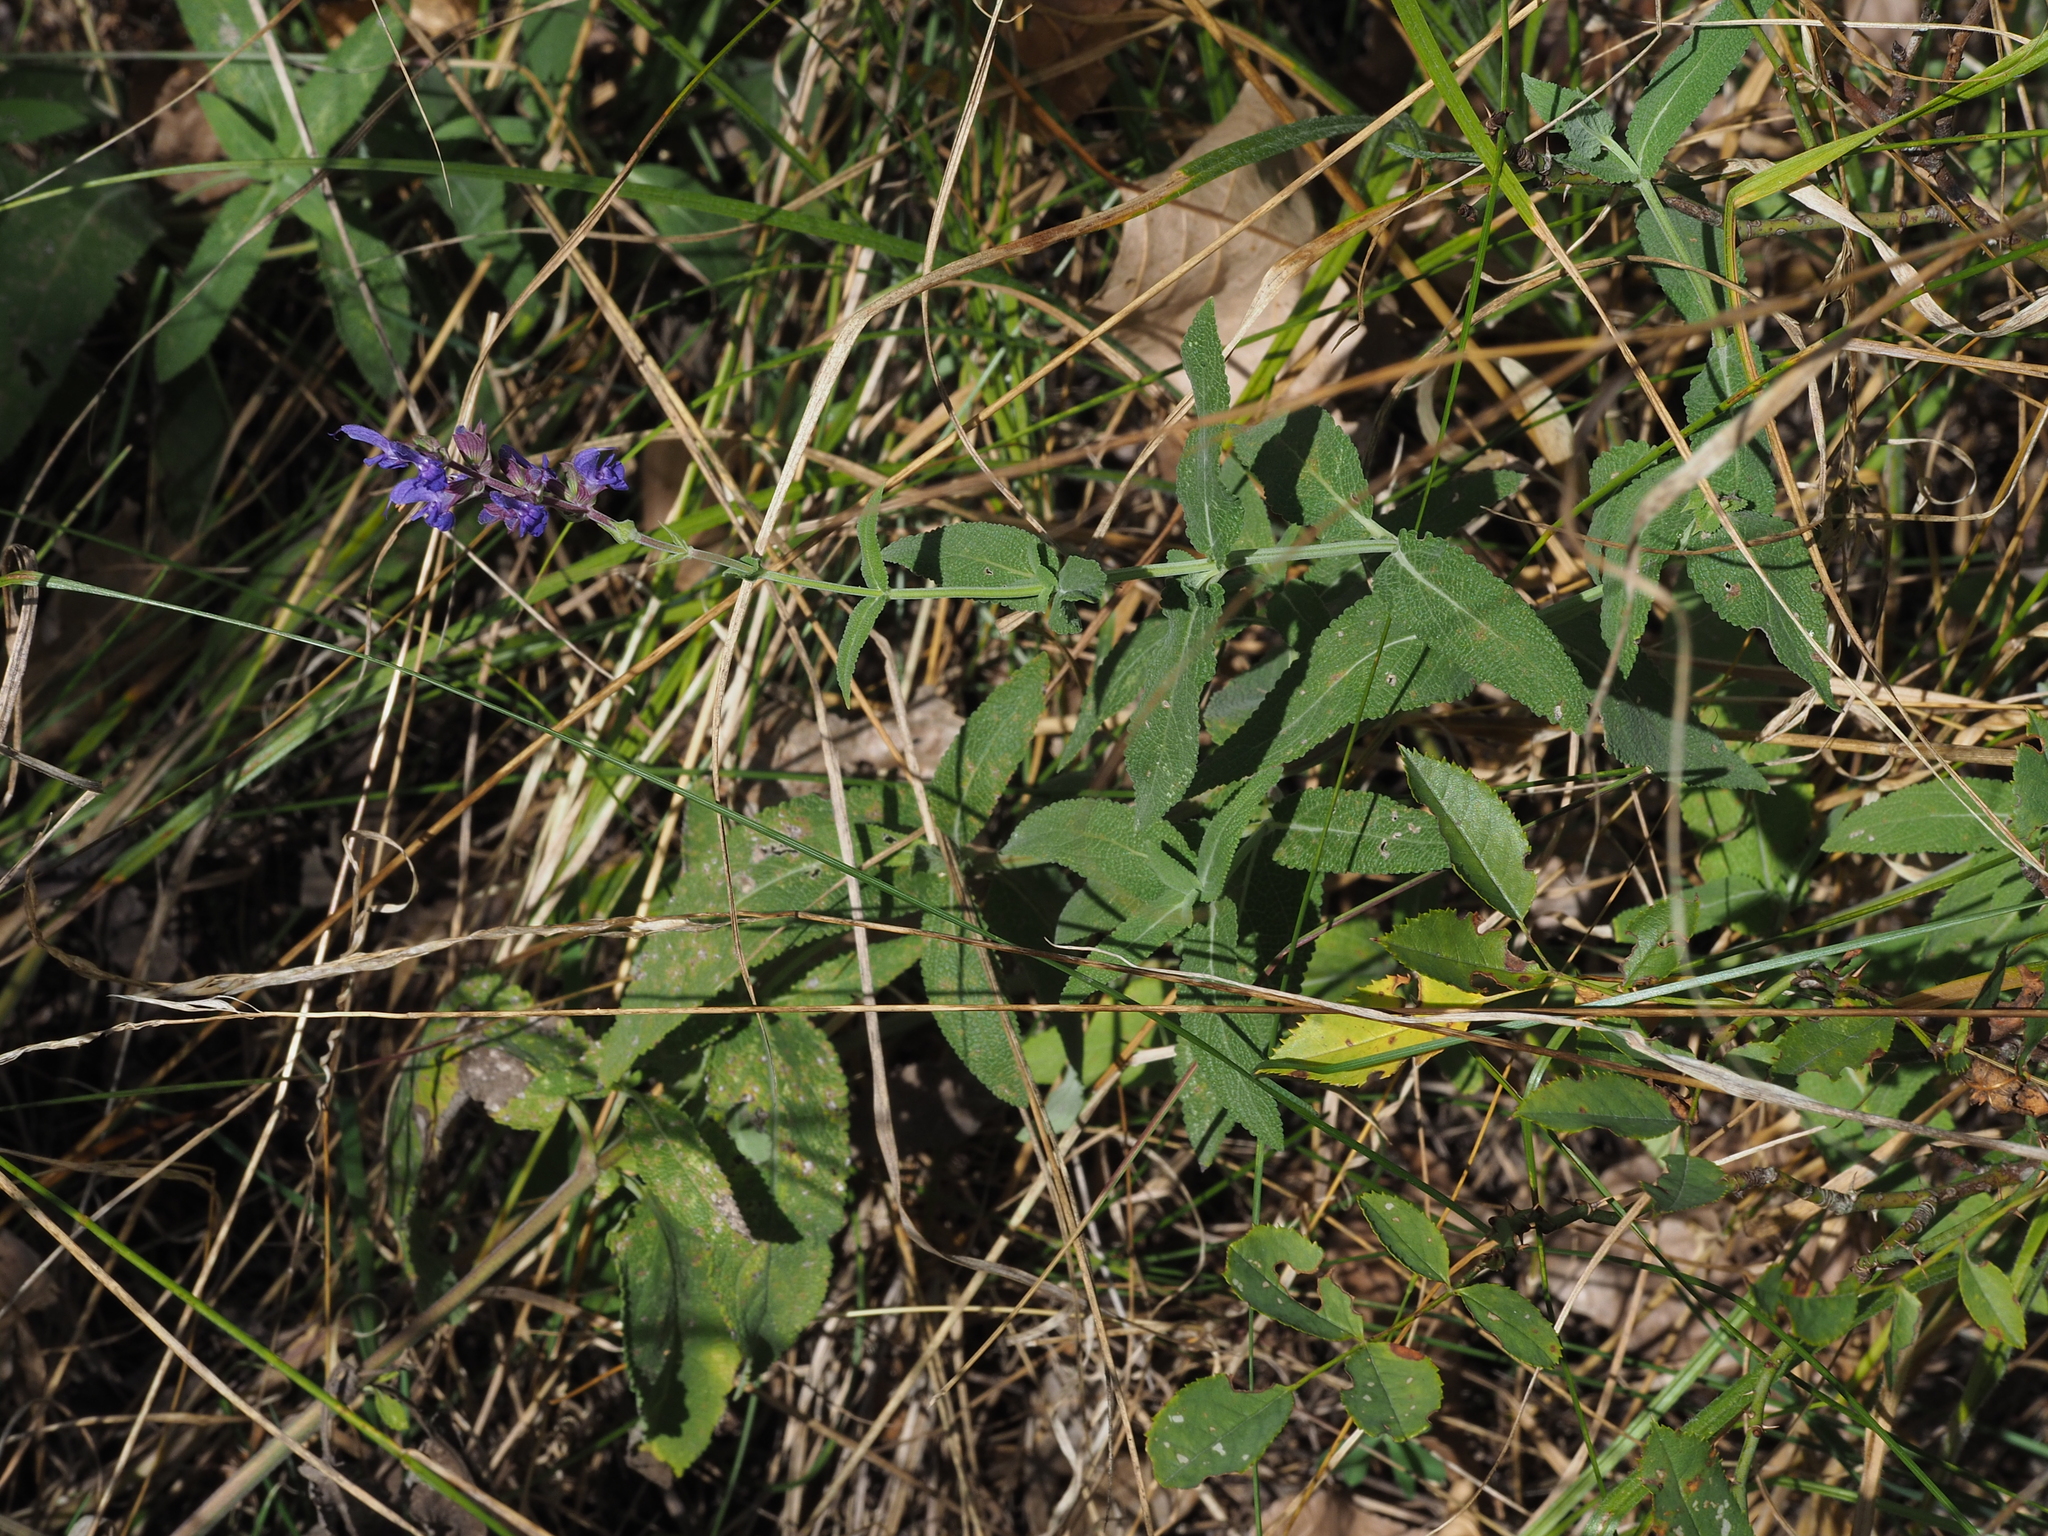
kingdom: Plantae
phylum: Tracheophyta
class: Magnoliopsida
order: Lamiales
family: Lamiaceae
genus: Salvia
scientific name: Salvia nemorosa
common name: Balkan clary
